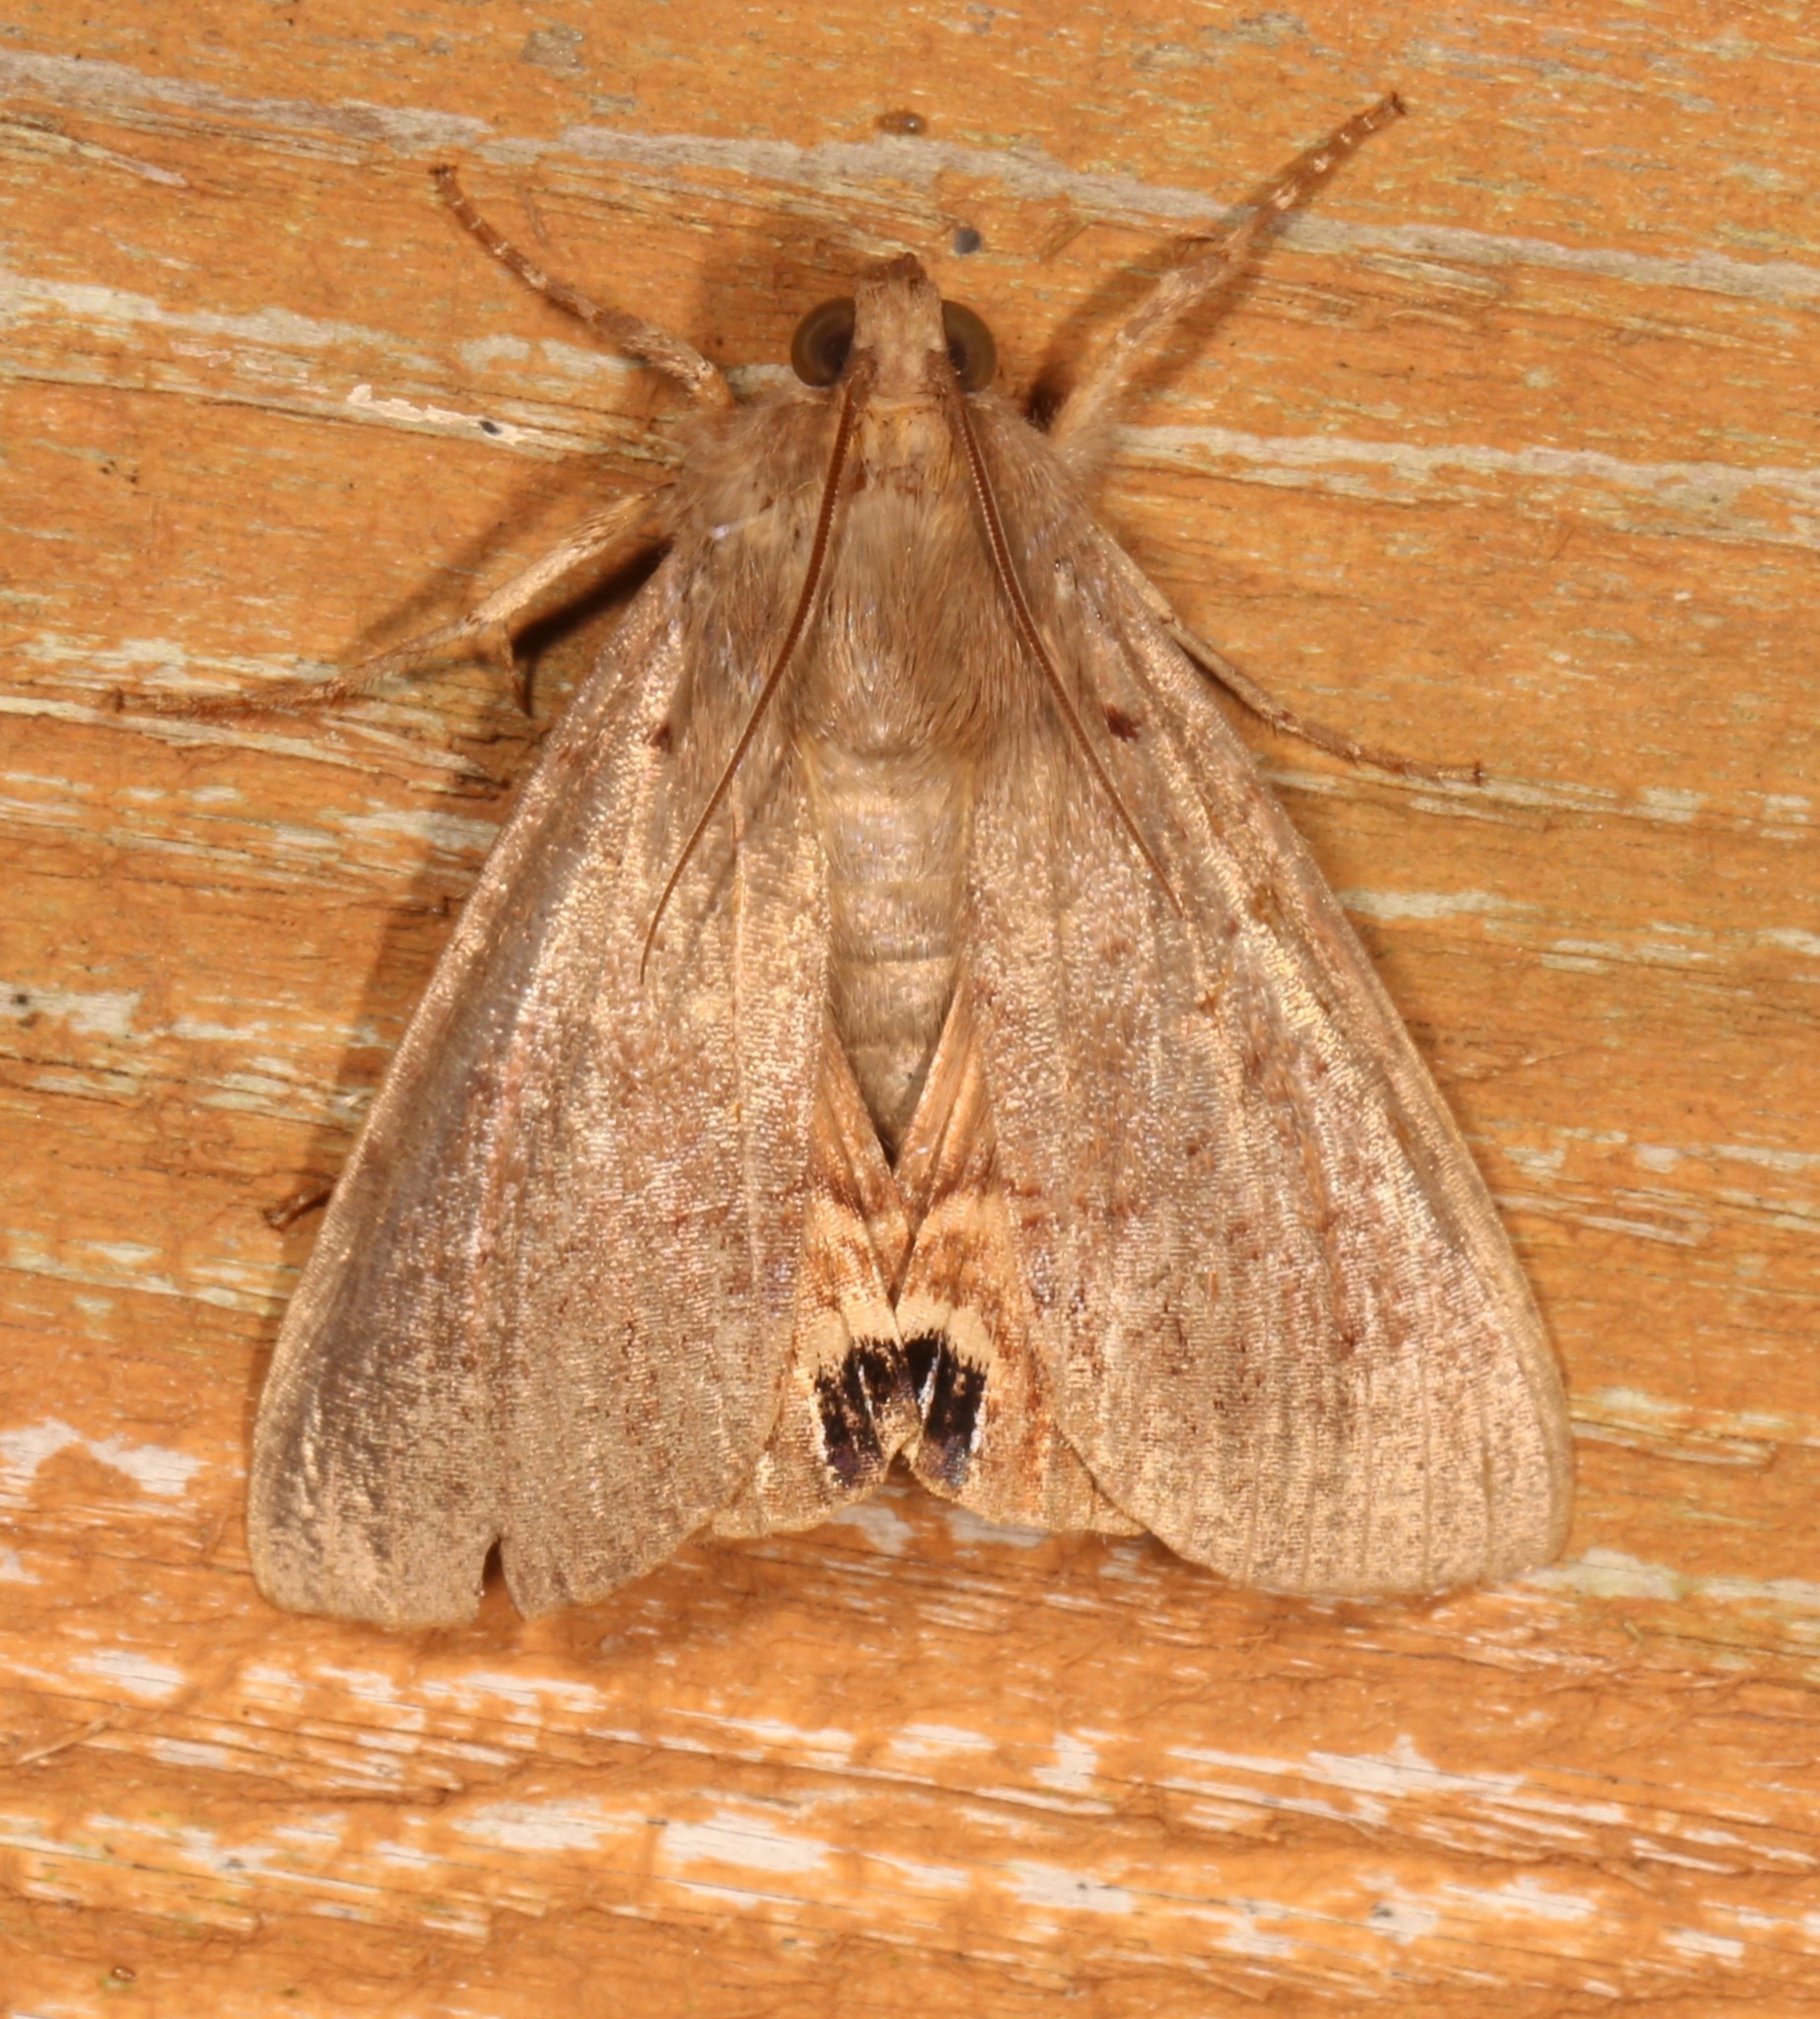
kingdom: Animalia
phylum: Arthropoda
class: Insecta
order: Lepidoptera
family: Erebidae
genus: Litoprosopus
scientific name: Litoprosopus futilis
